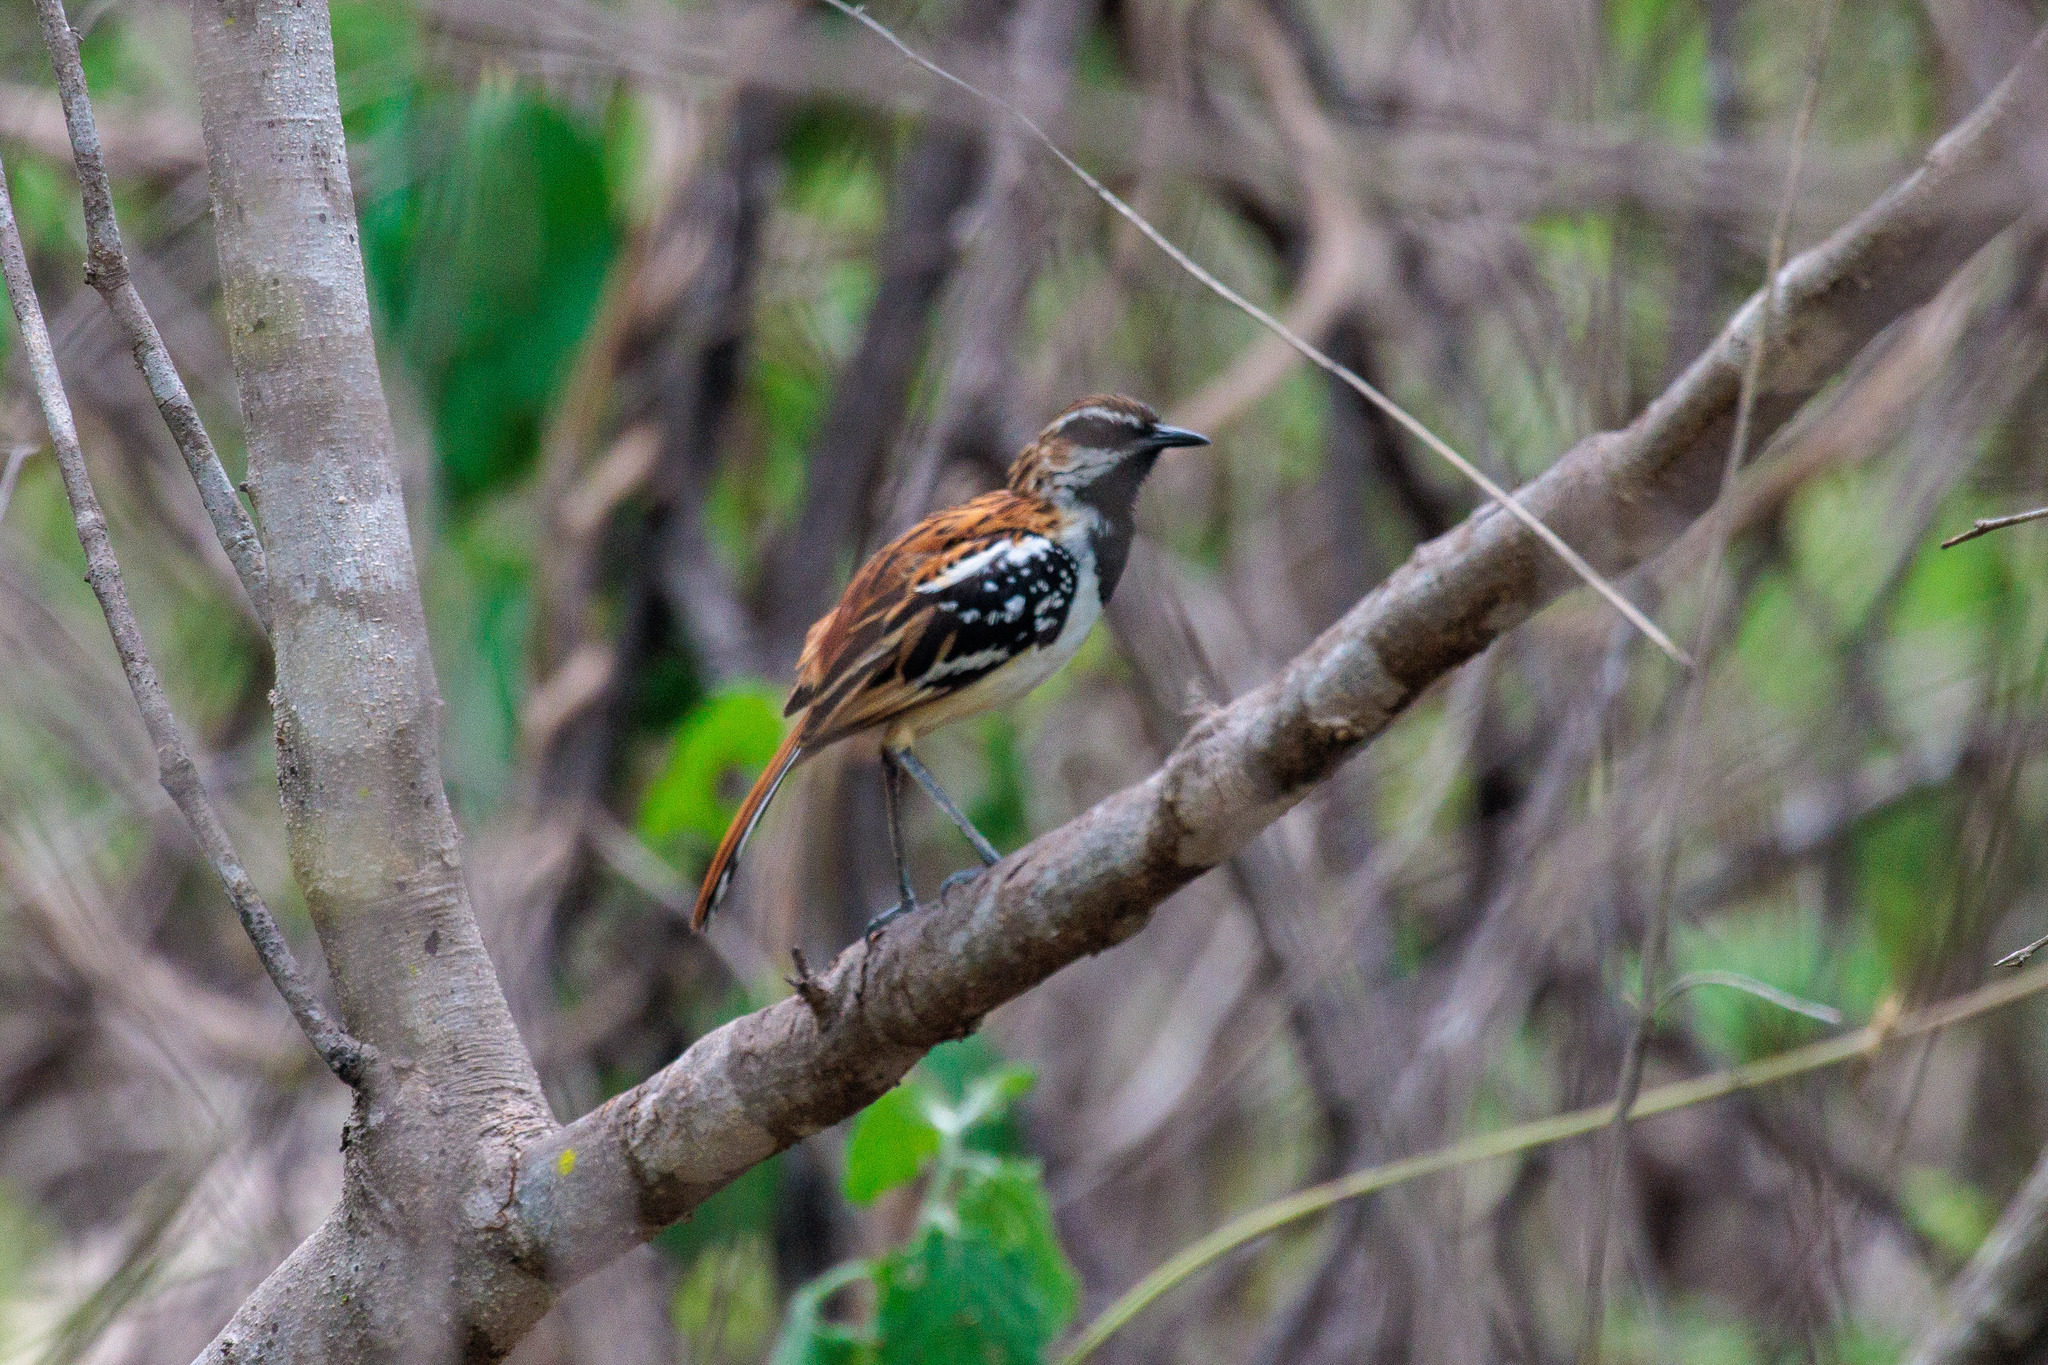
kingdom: Animalia
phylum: Chordata
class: Aves
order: Passeriformes
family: Thamnophilidae
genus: Myrmorchilus
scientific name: Myrmorchilus strigilatus
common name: Stripe-backed antbird
